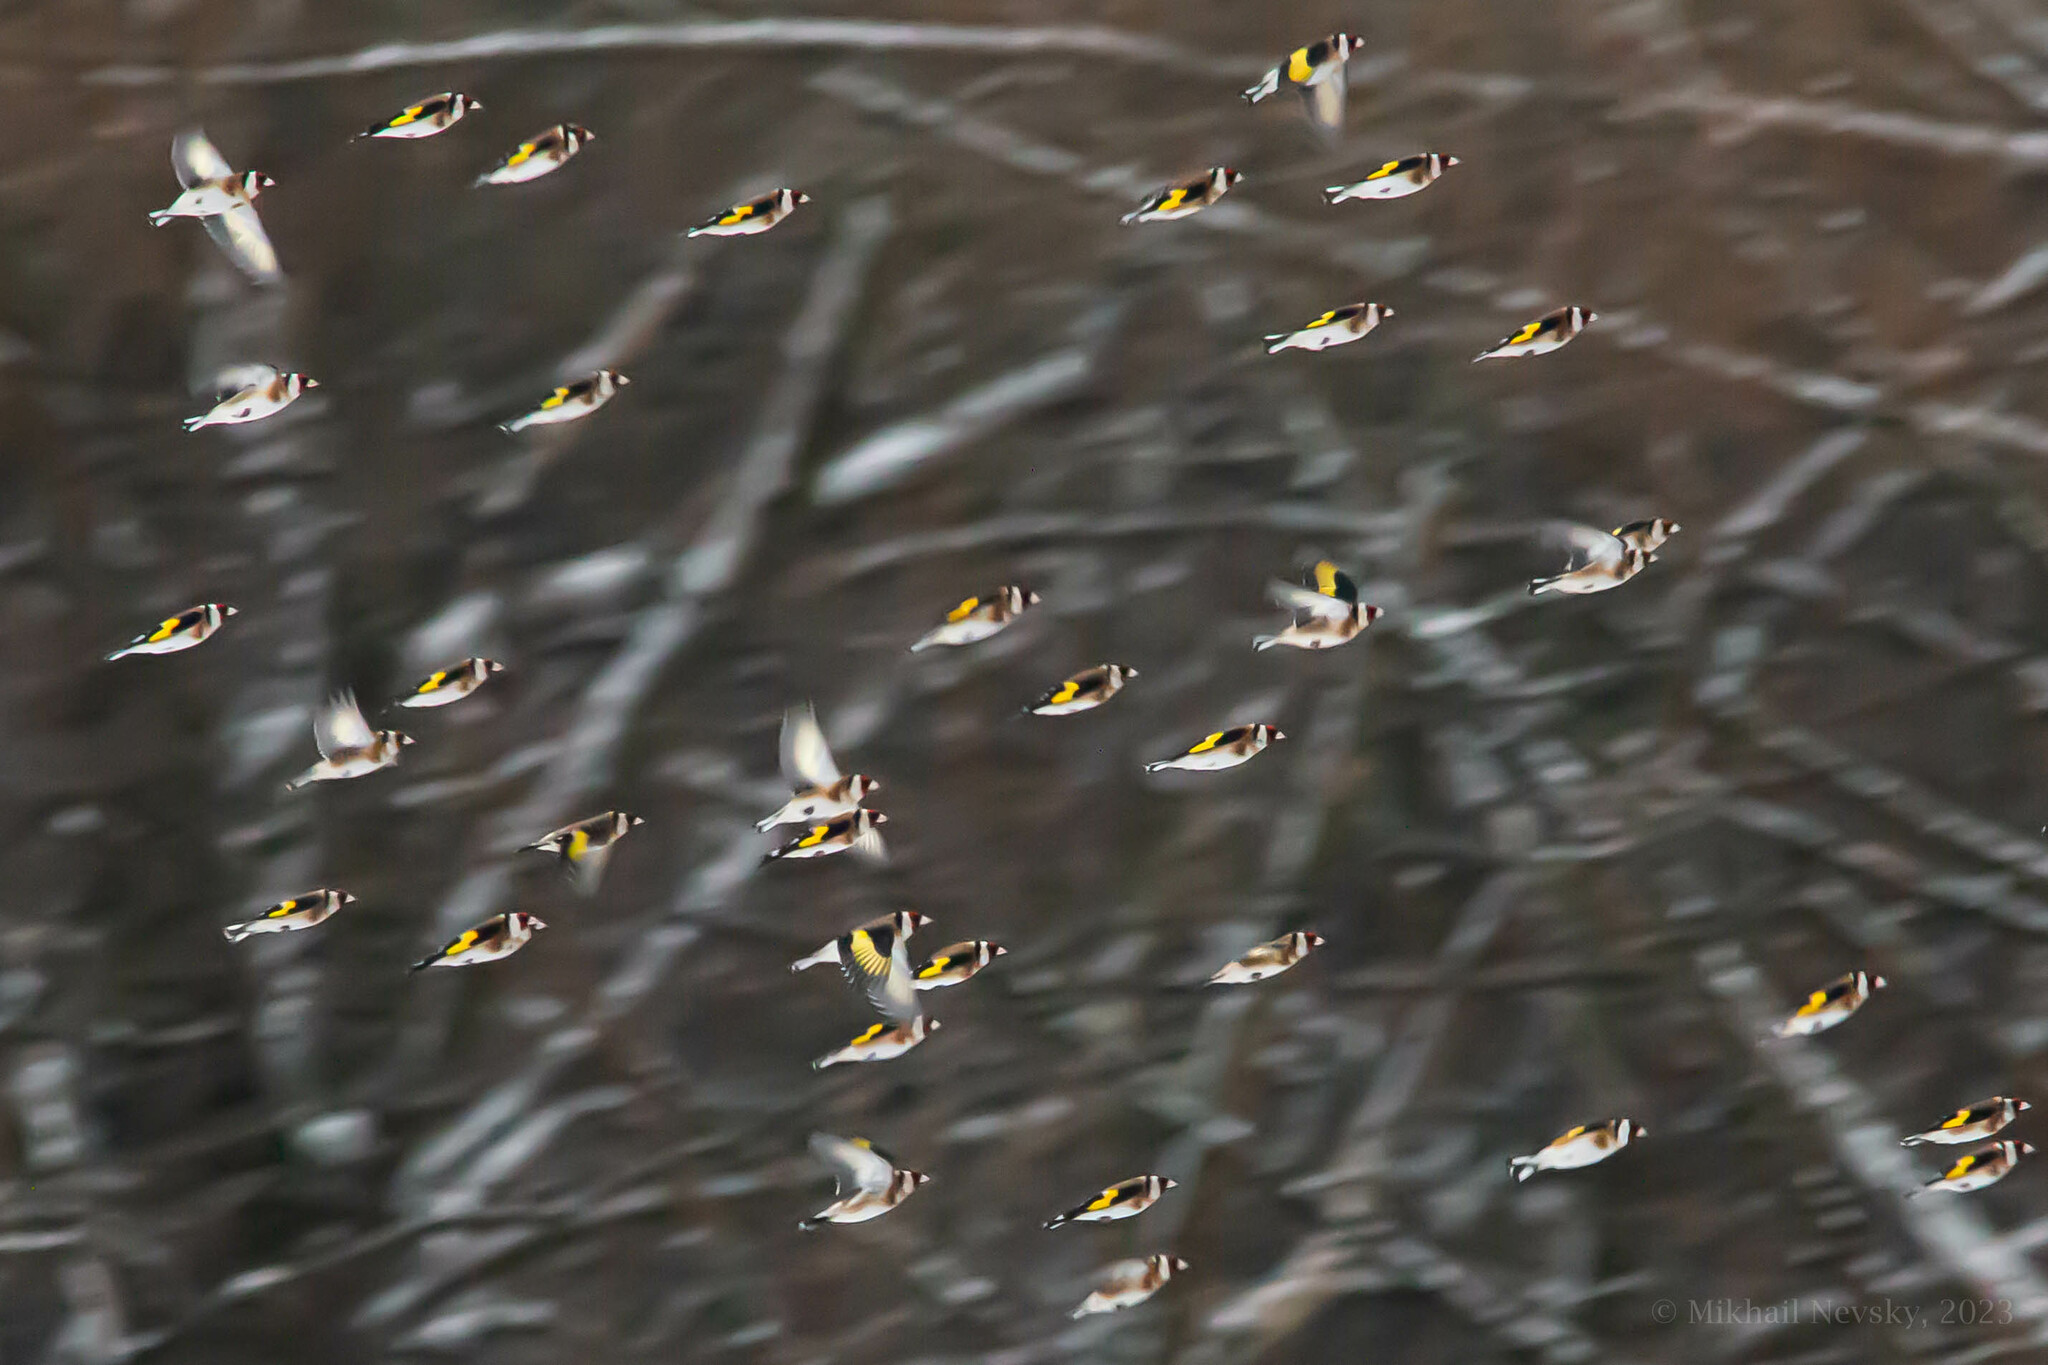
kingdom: Animalia
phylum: Chordata
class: Aves
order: Passeriformes
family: Fringillidae
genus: Carduelis
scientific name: Carduelis carduelis
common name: European goldfinch
